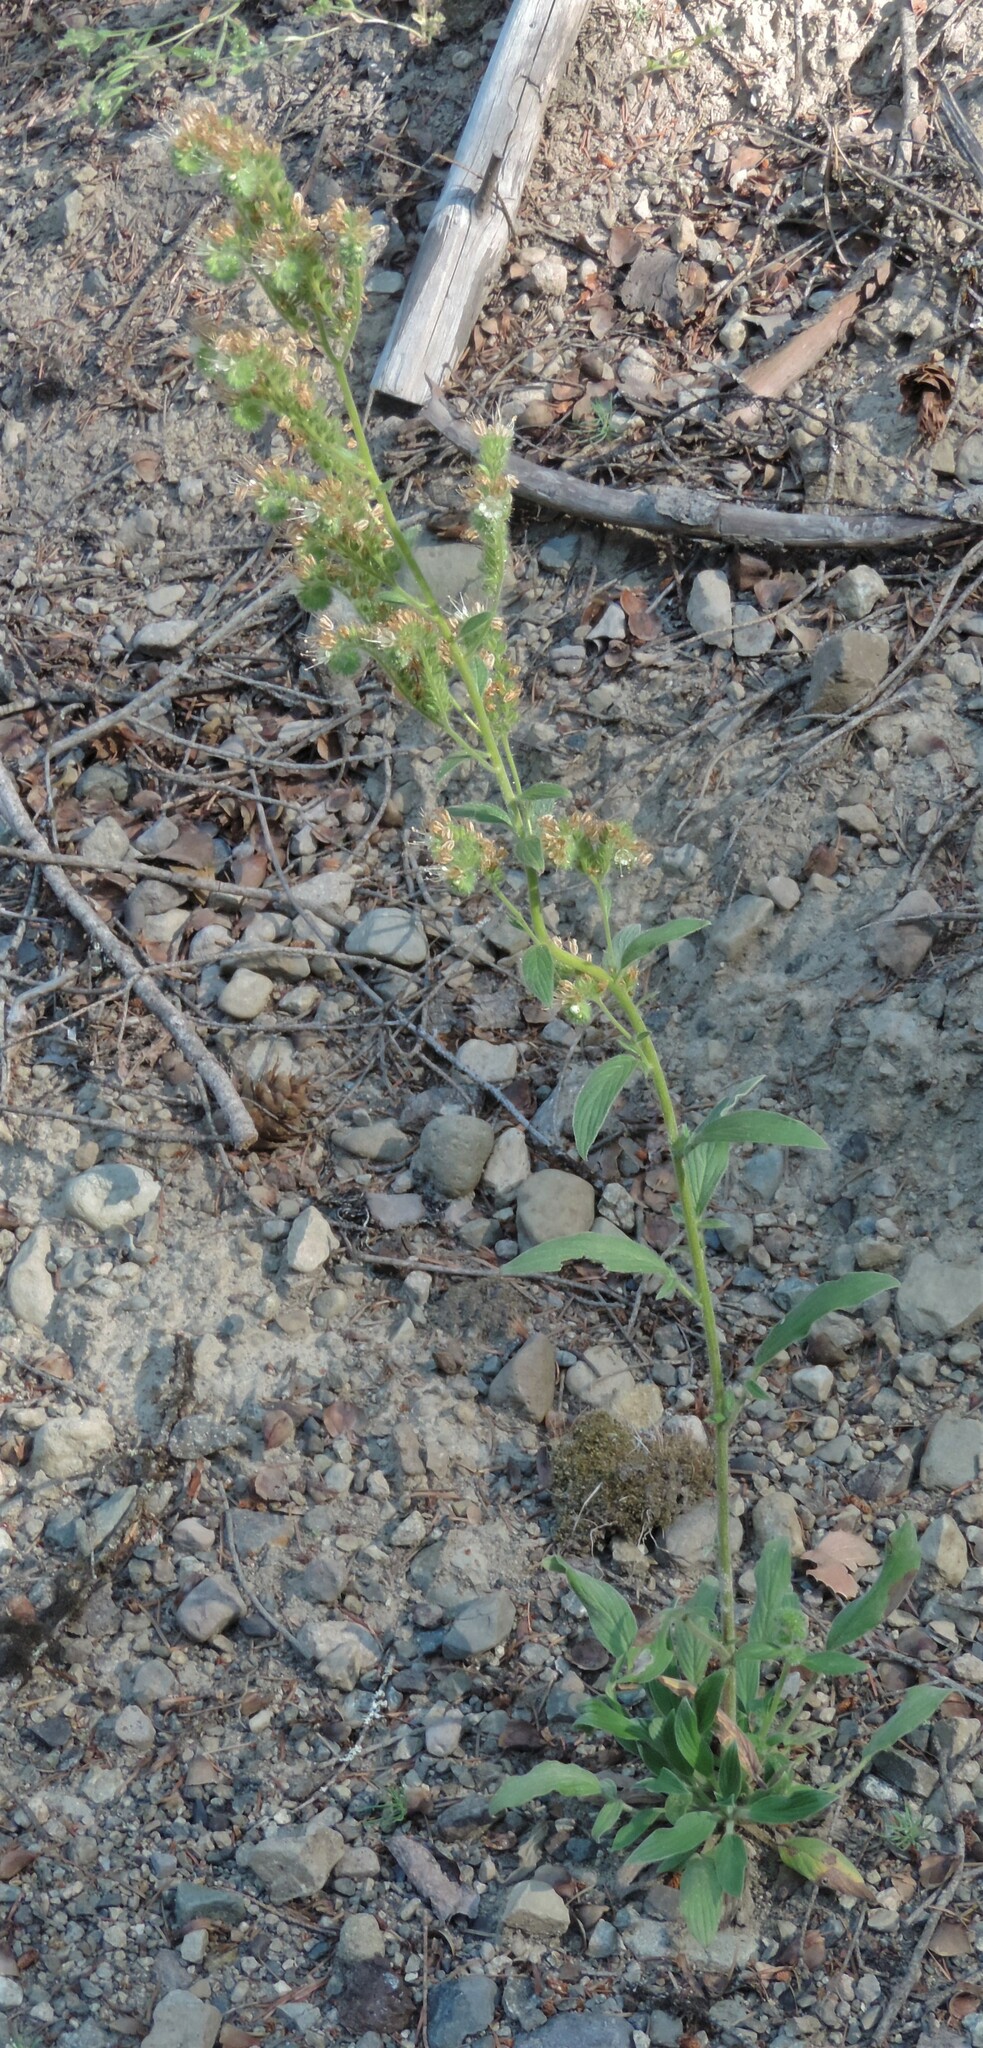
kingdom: Plantae
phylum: Tracheophyta
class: Magnoliopsida
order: Boraginales
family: Hydrophyllaceae
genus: Phacelia
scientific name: Phacelia heterophylla
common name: Variable-leaved phacelia
